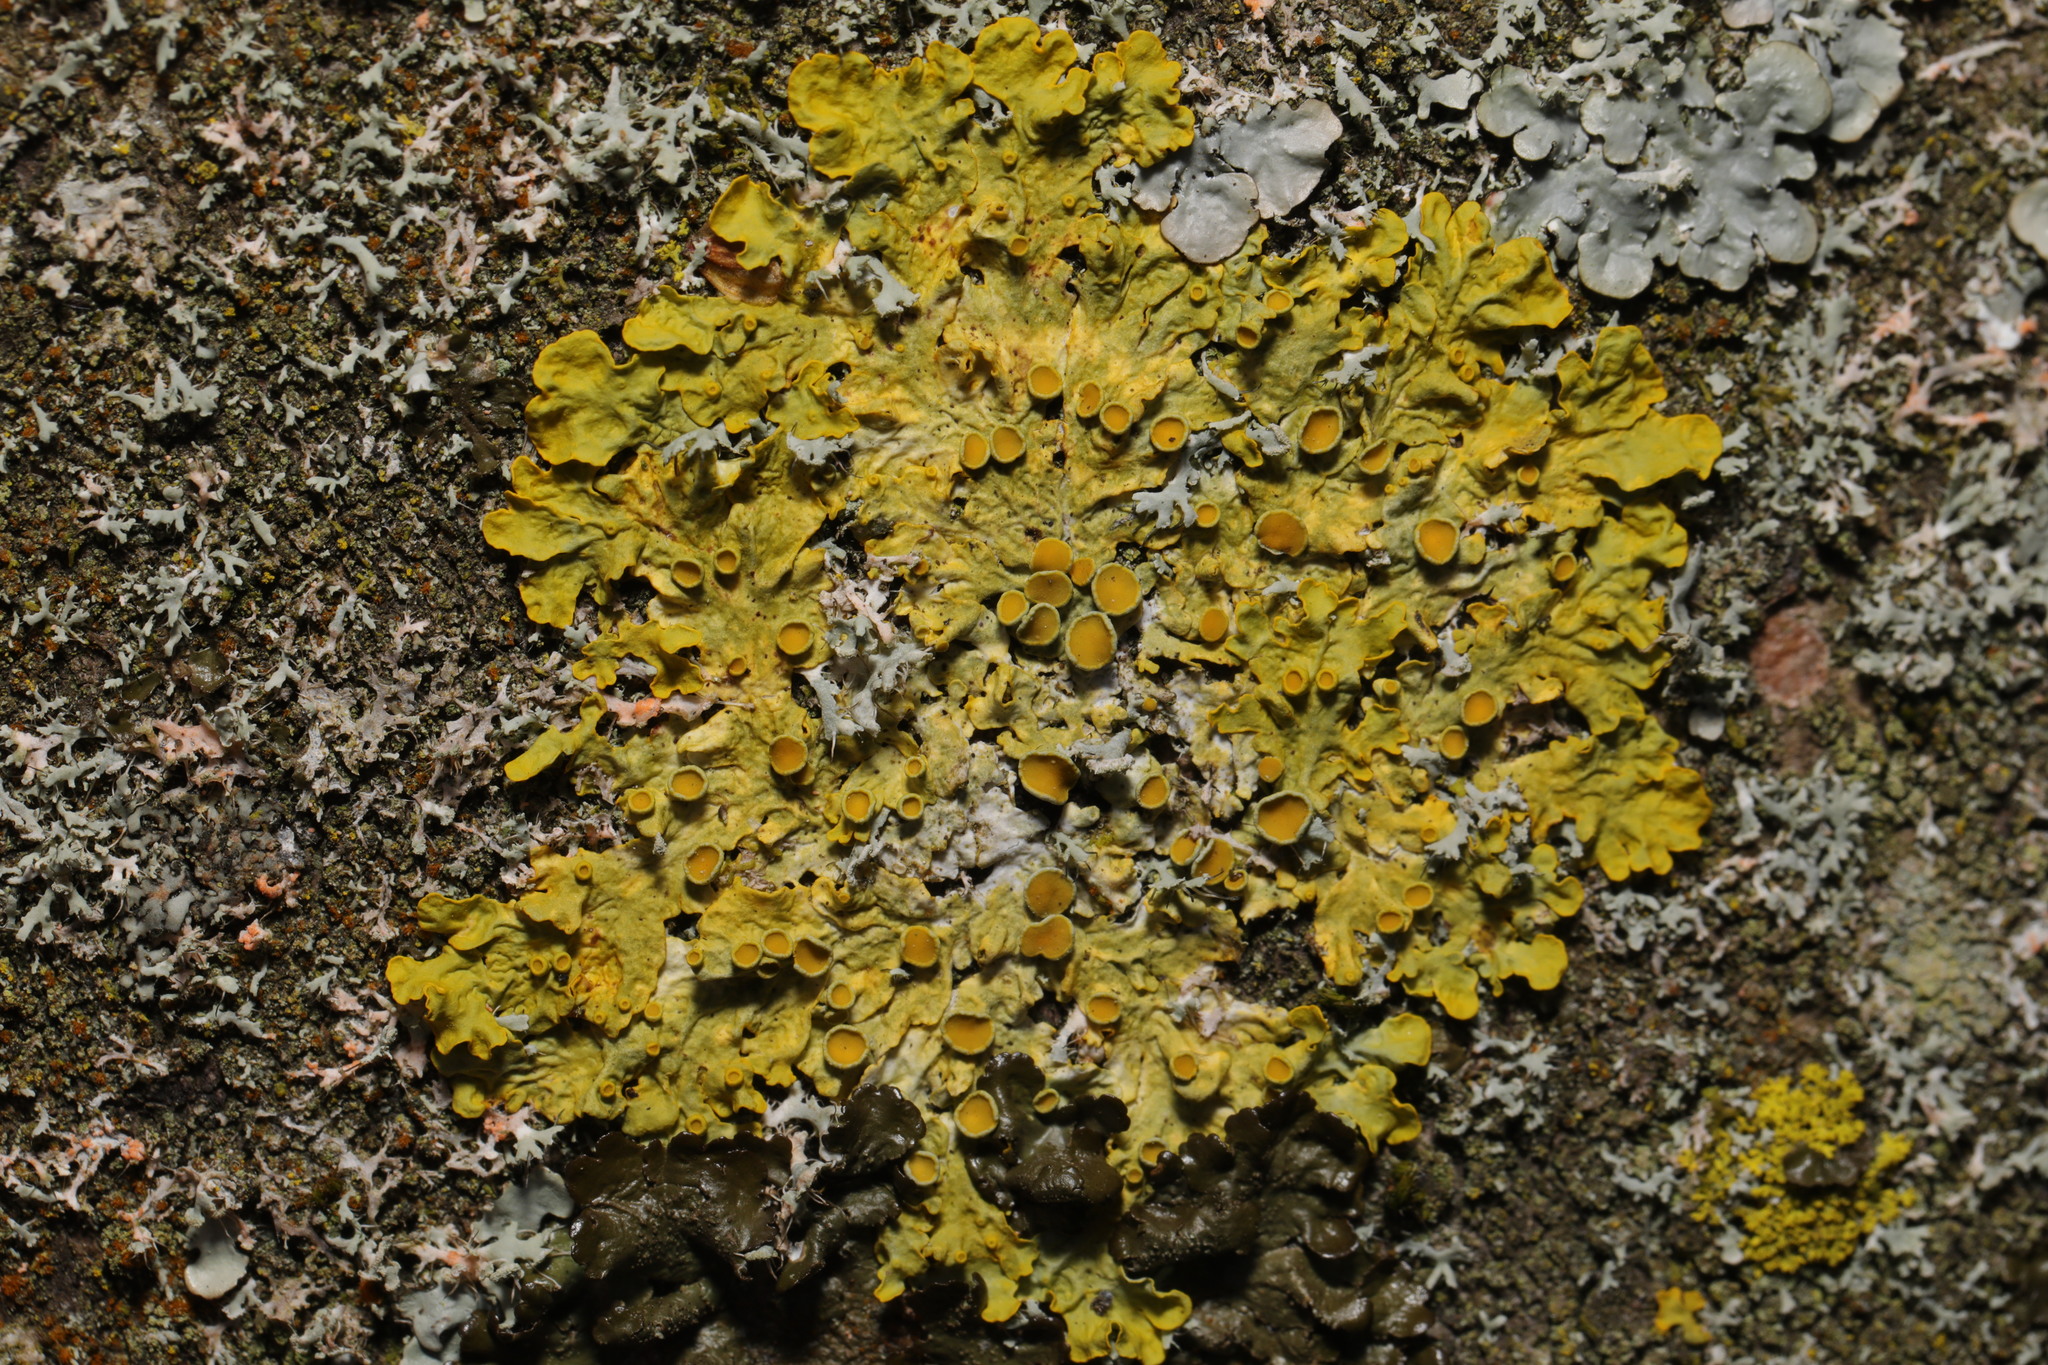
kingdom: Fungi
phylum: Ascomycota
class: Lecanoromycetes
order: Teloschistales
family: Teloschistaceae
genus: Xanthoria
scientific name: Xanthoria parietina
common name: Common orange lichen
